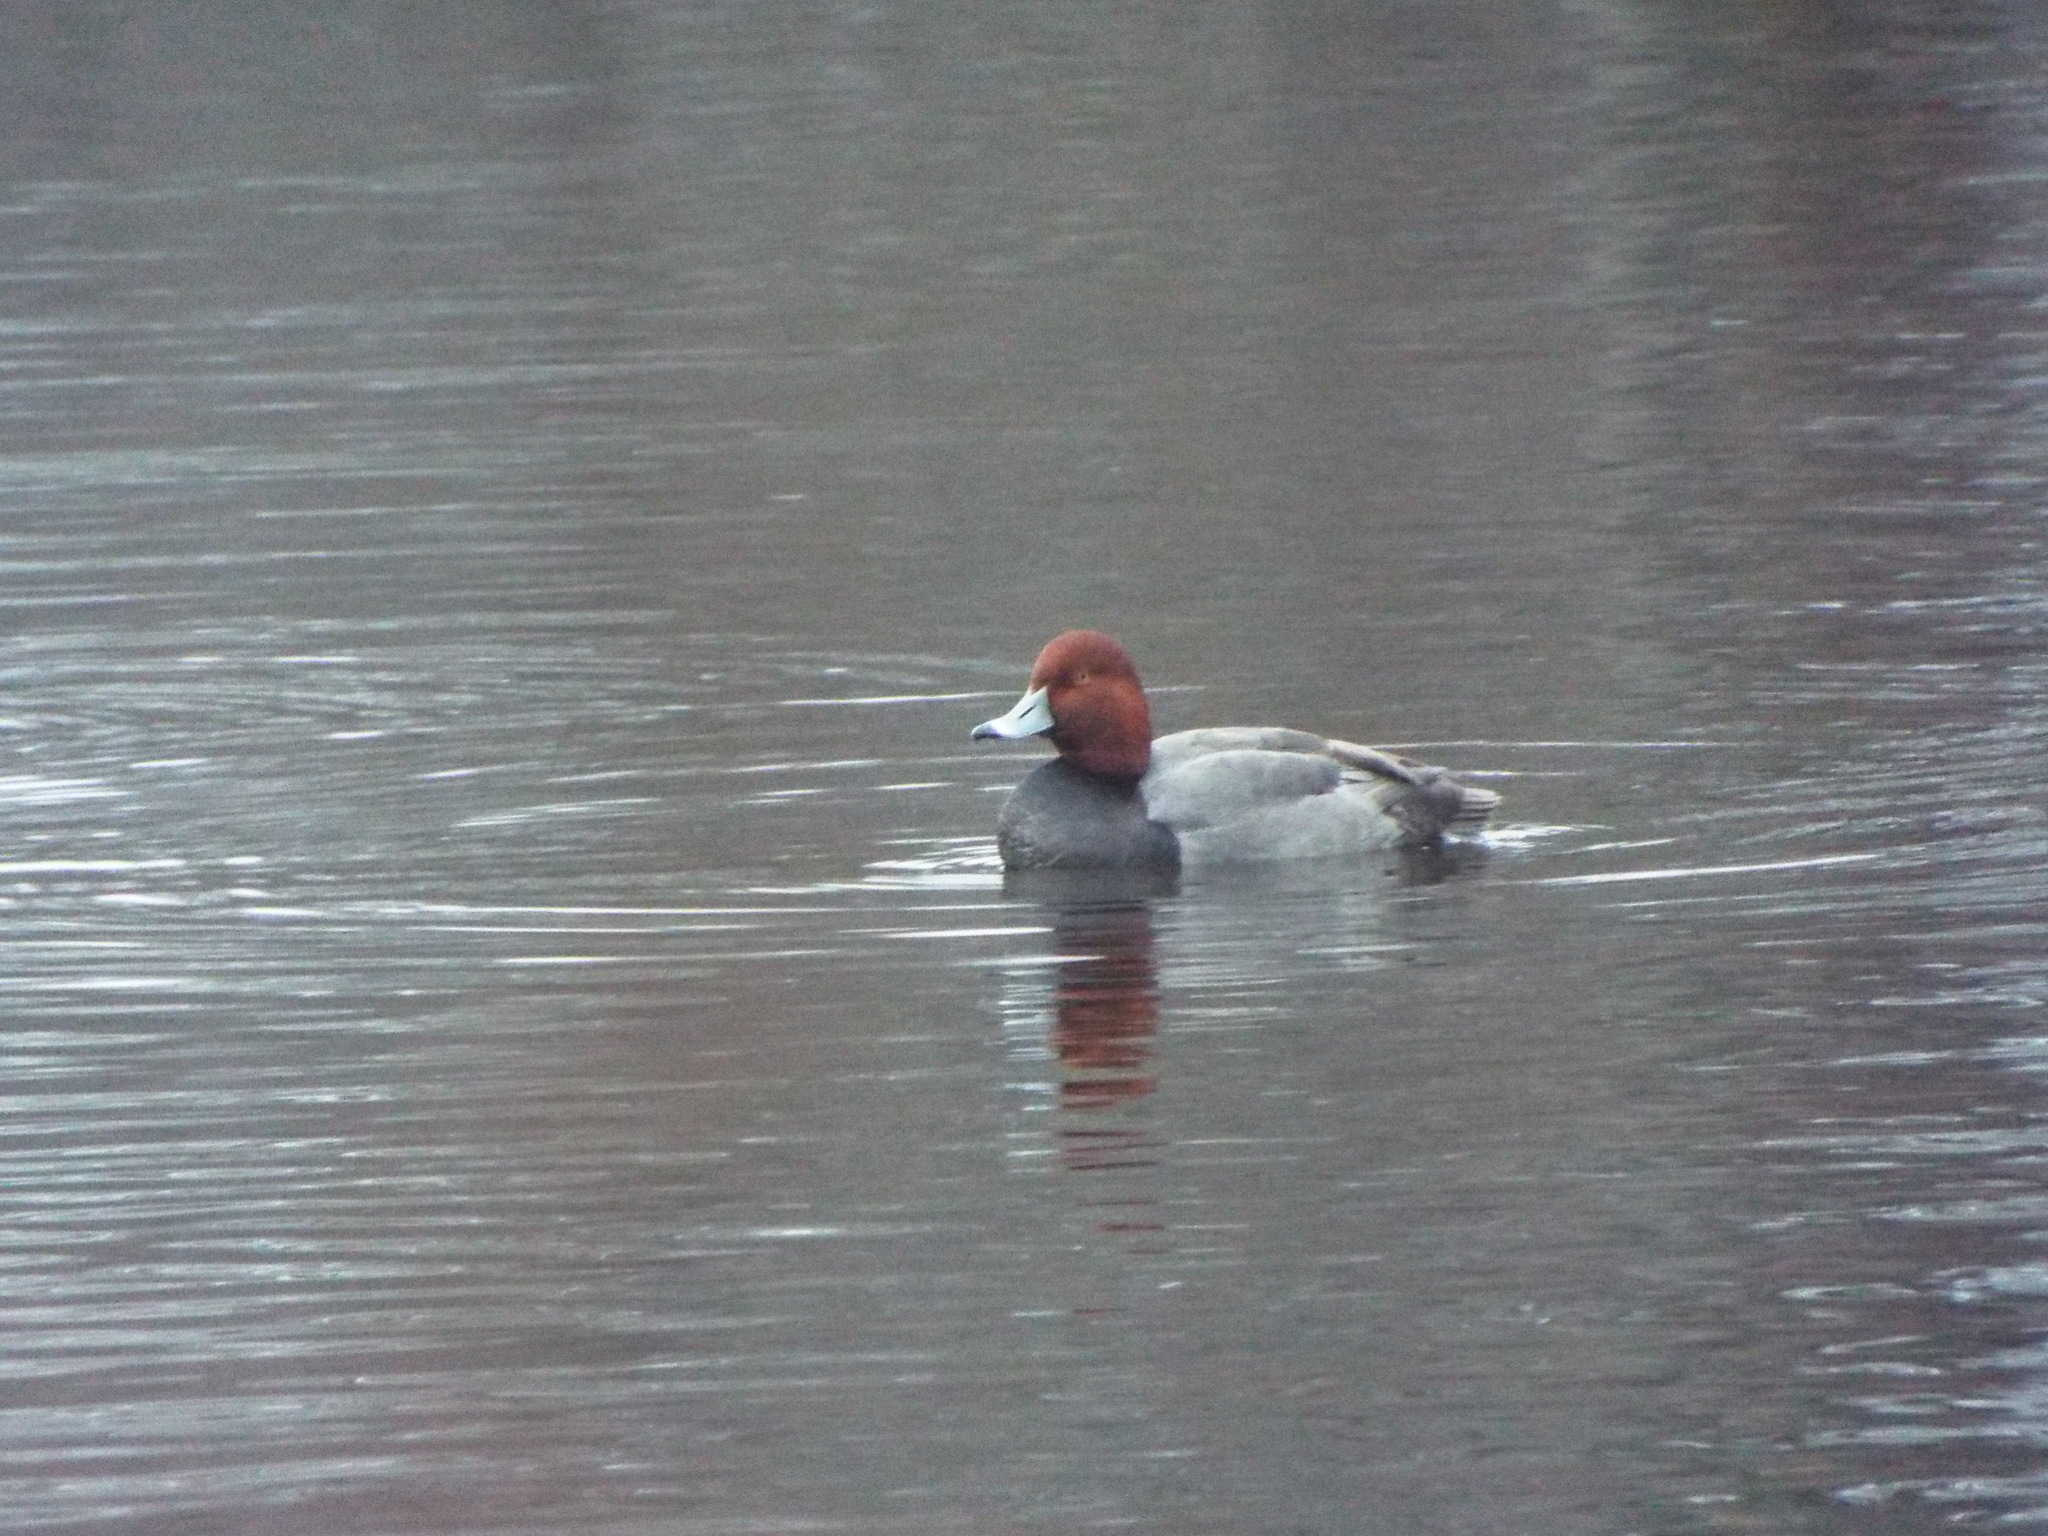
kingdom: Animalia
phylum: Chordata
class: Aves
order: Anseriformes
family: Anatidae
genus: Aythya
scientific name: Aythya americana
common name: Redhead
